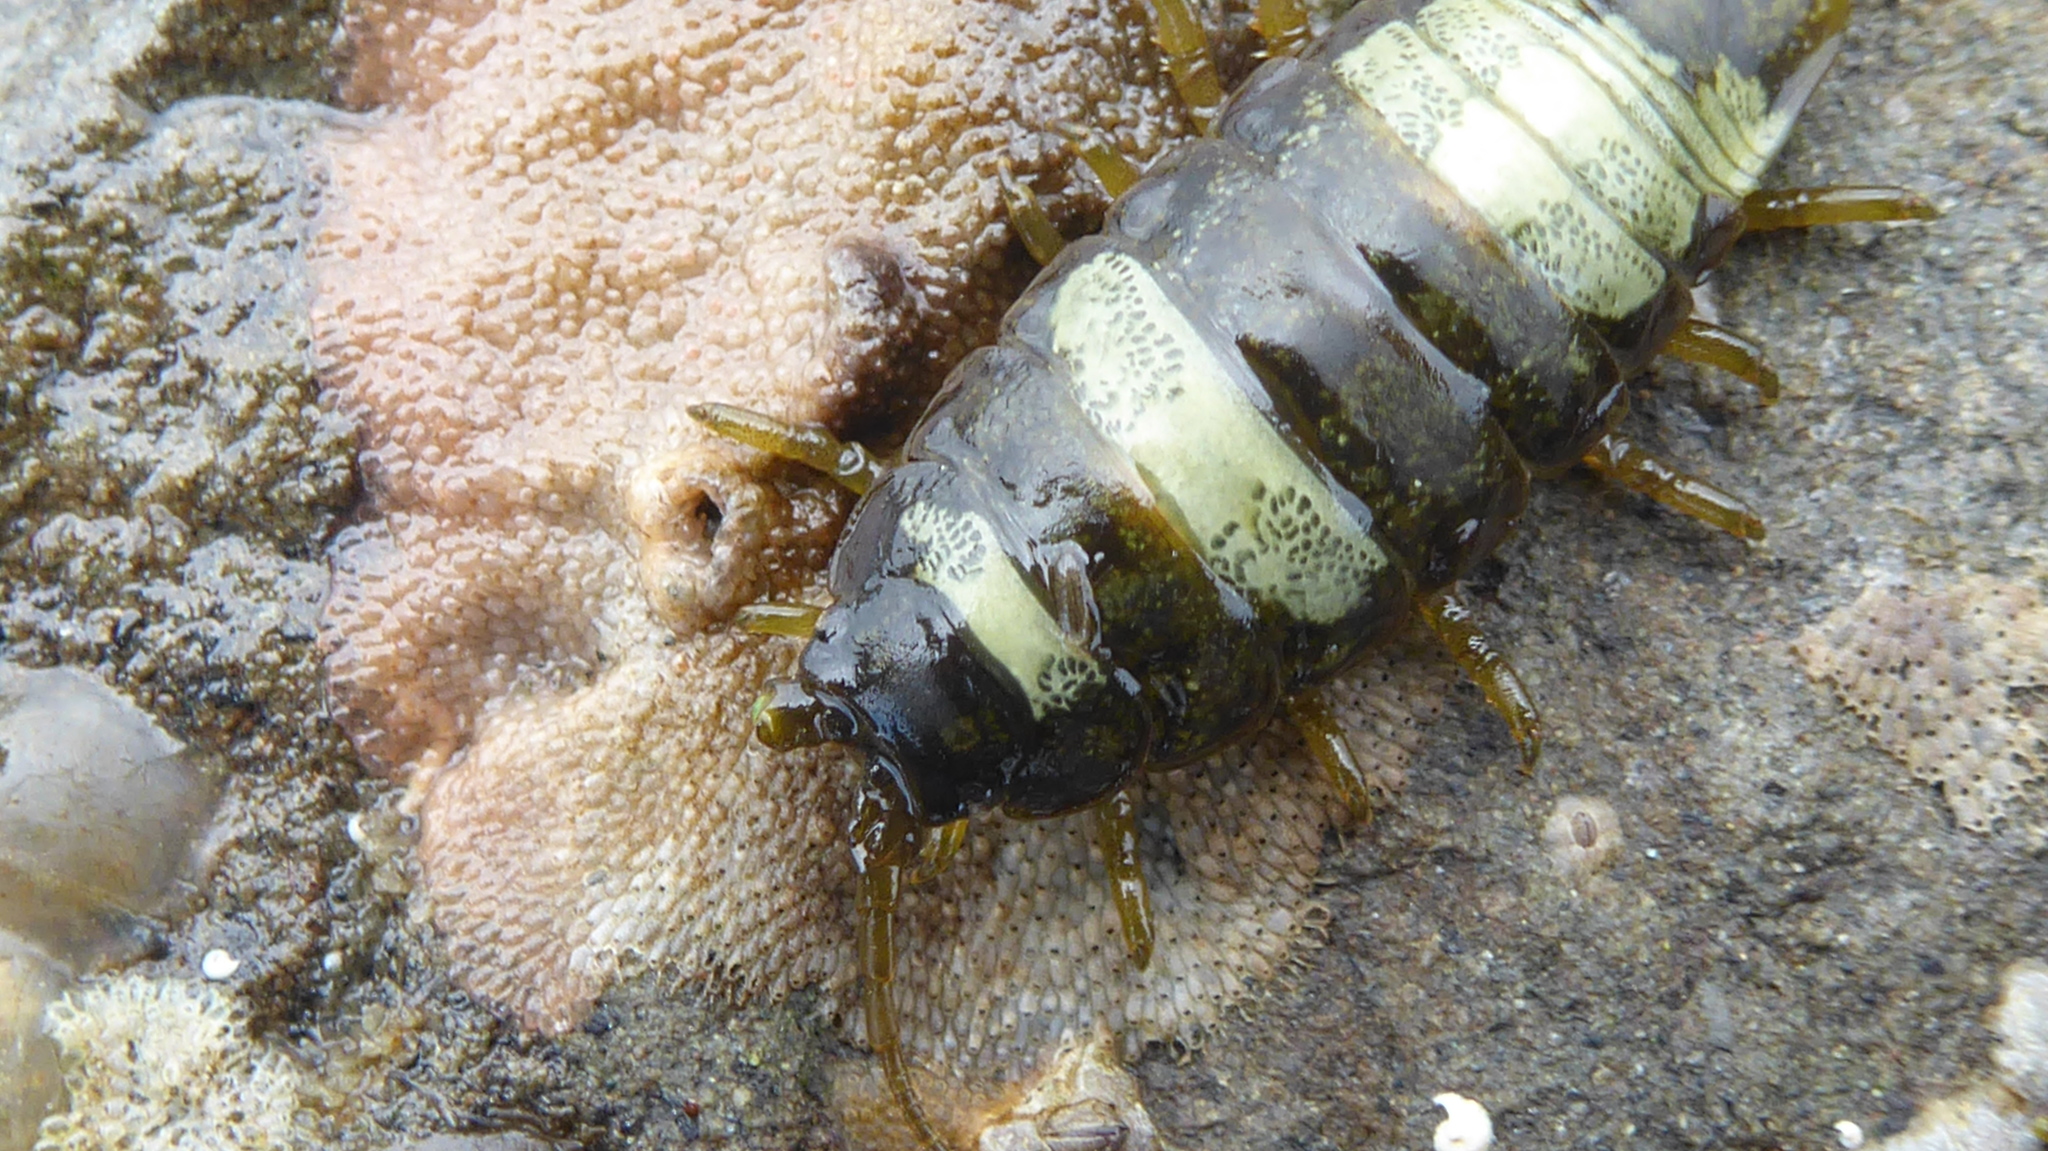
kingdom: Animalia
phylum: Arthropoda
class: Malacostraca
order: Isopoda
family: Idoteidae
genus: Pentidotea
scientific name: Pentidotea wosnesenskii
